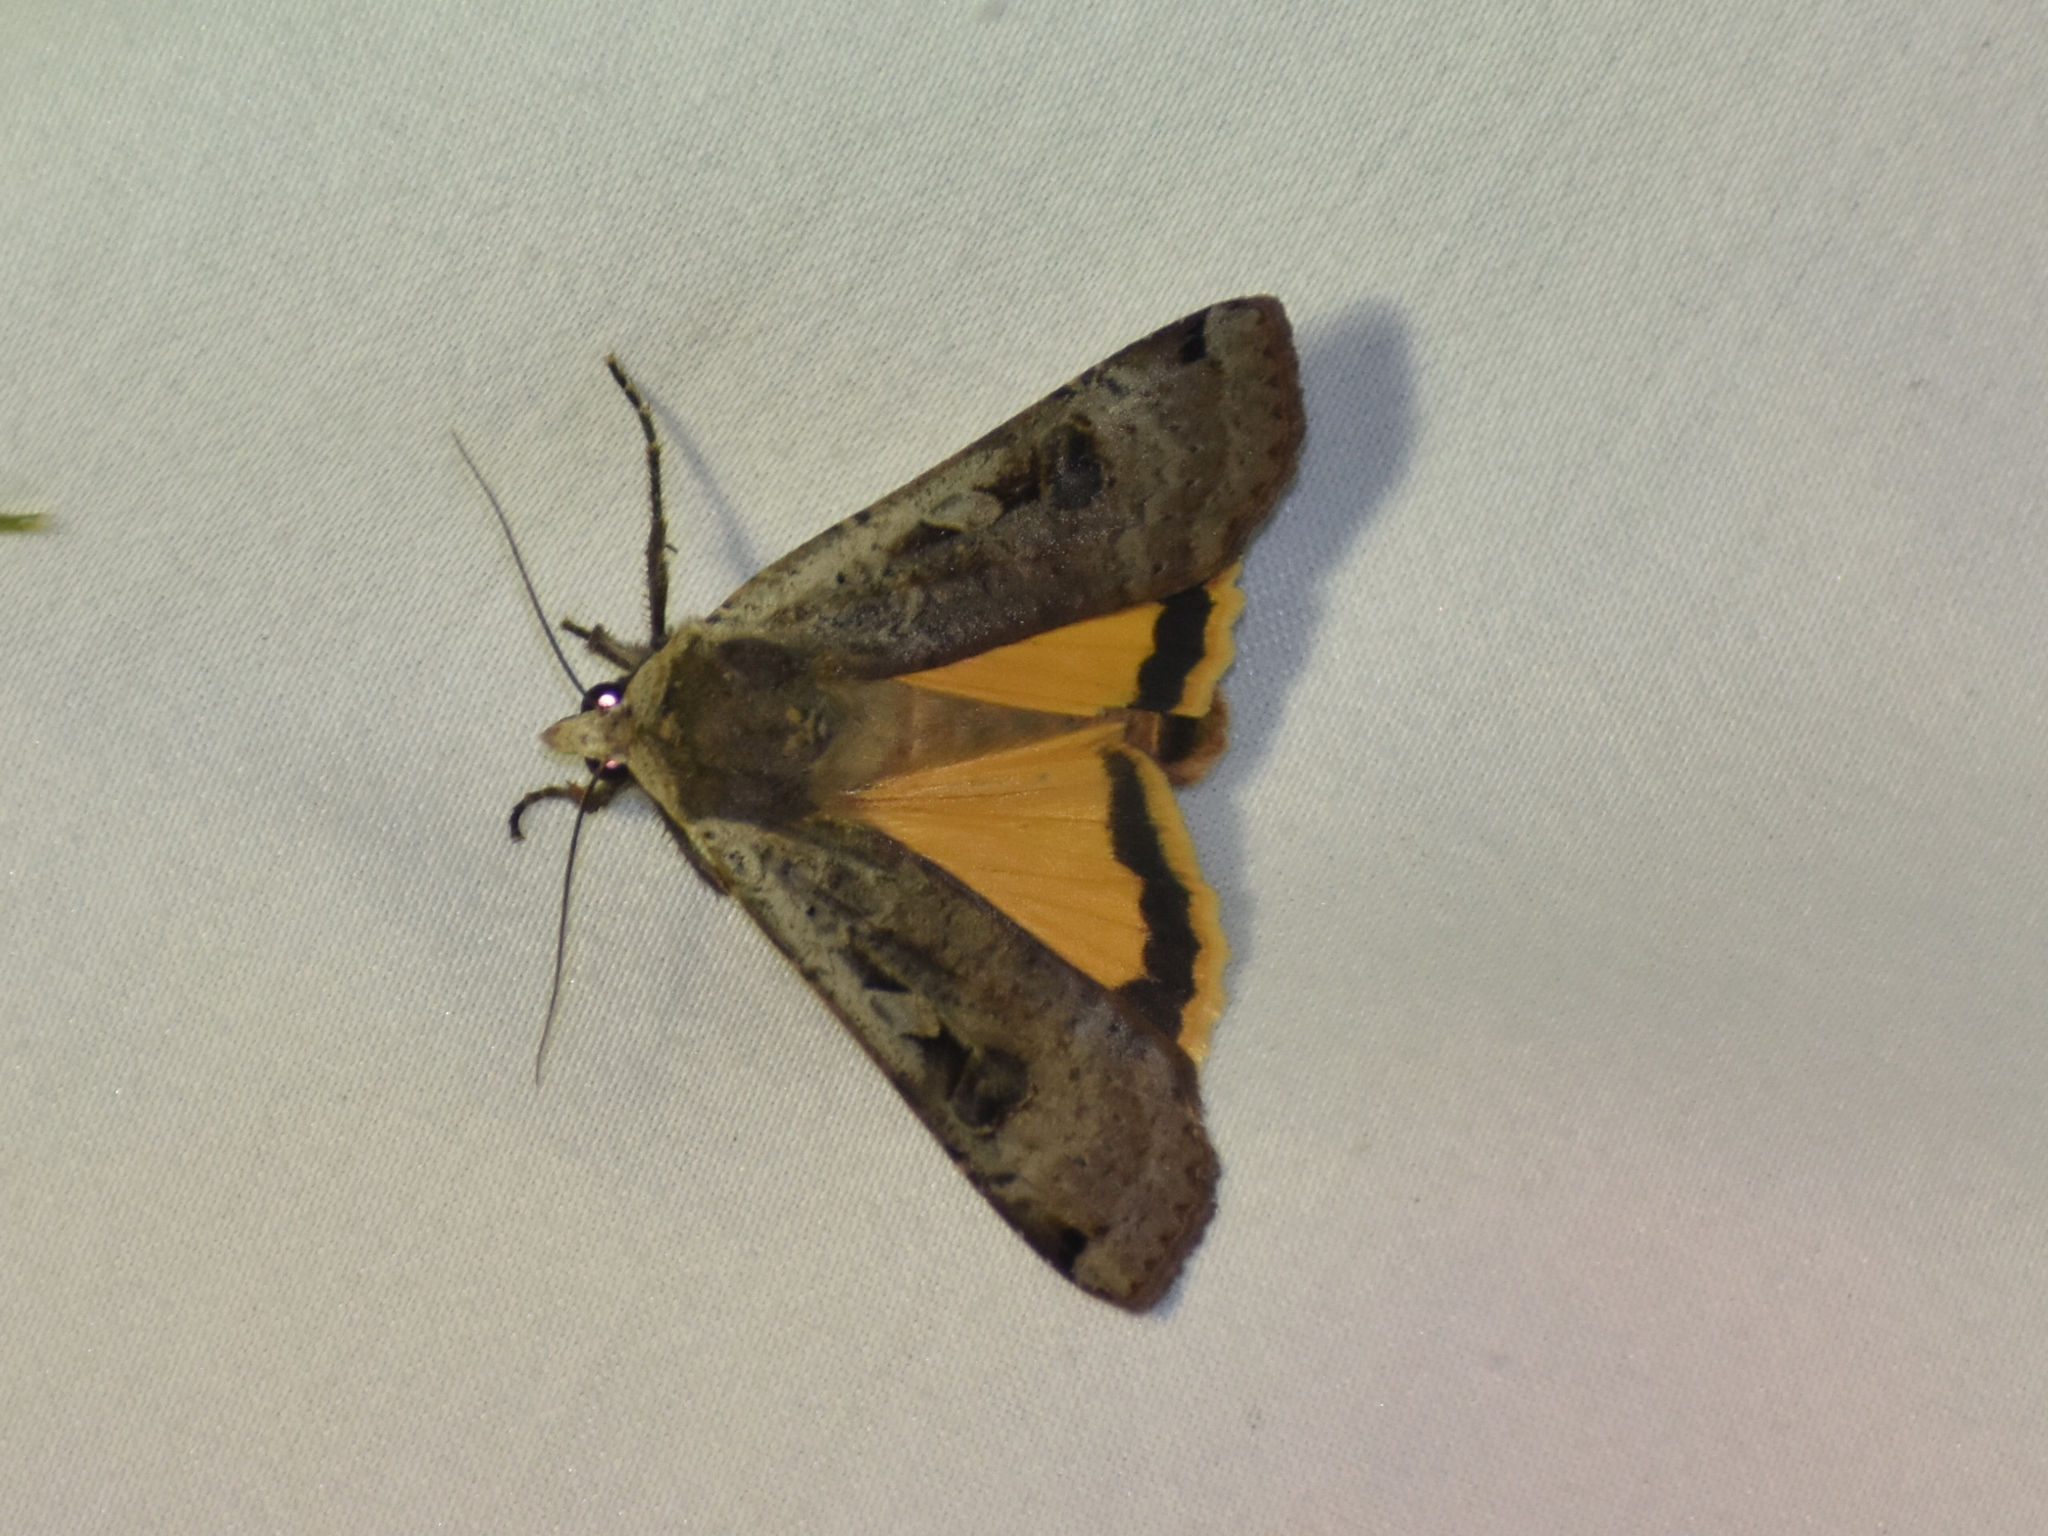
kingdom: Animalia
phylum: Arthropoda
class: Insecta
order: Lepidoptera
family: Noctuidae
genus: Noctua
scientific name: Noctua pronuba
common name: Large yellow underwing
